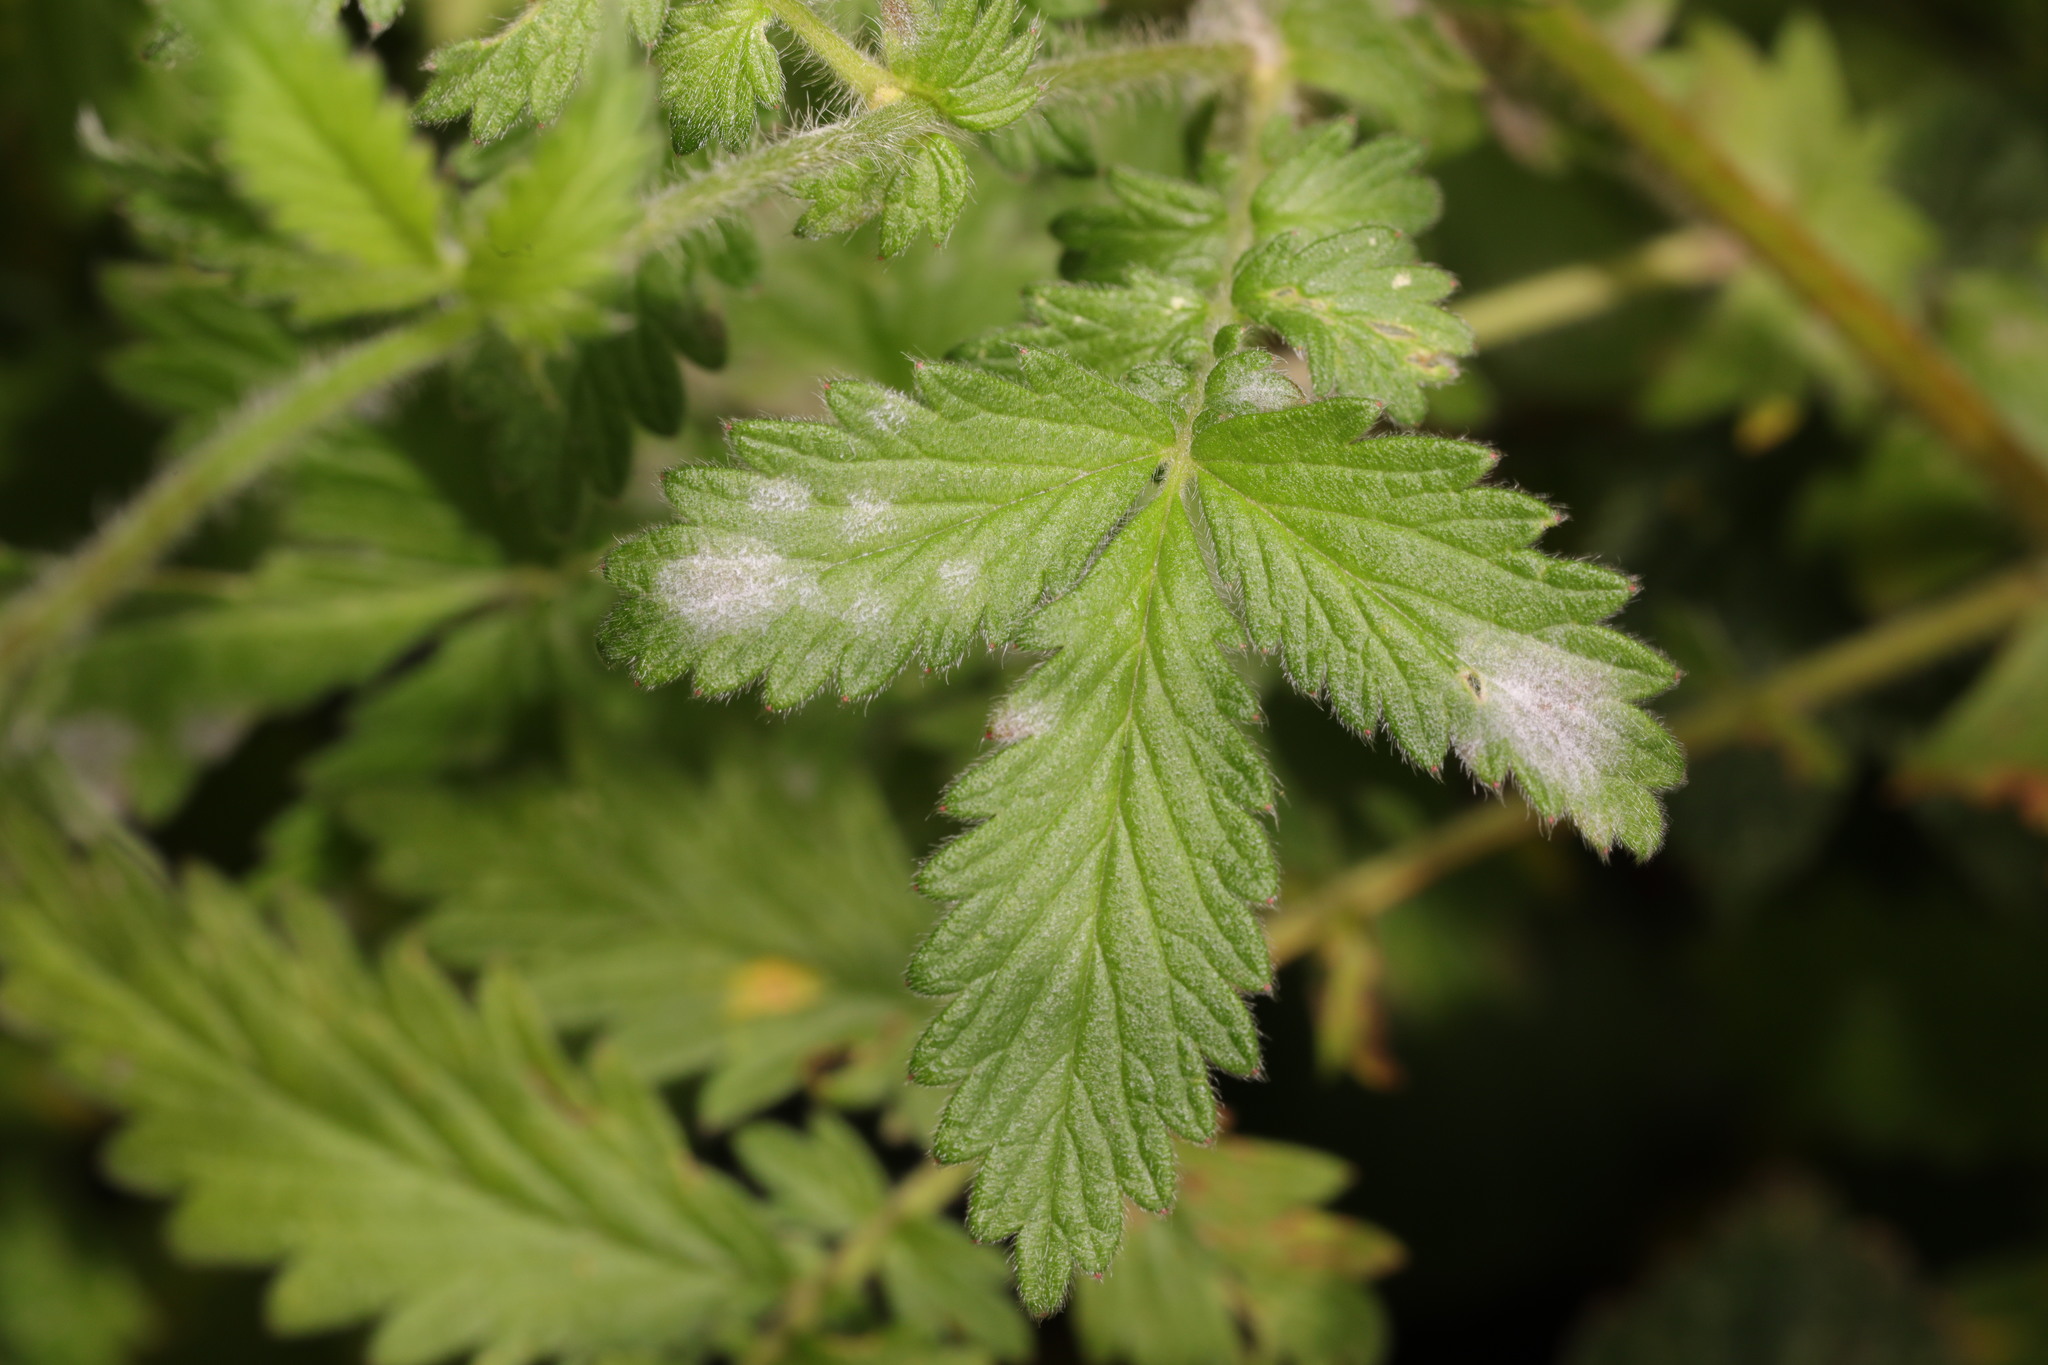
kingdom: Fungi
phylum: Ascomycota
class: Leotiomycetes
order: Helotiales
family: Erysiphaceae
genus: Podosphaera
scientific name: Podosphaera aphanis
